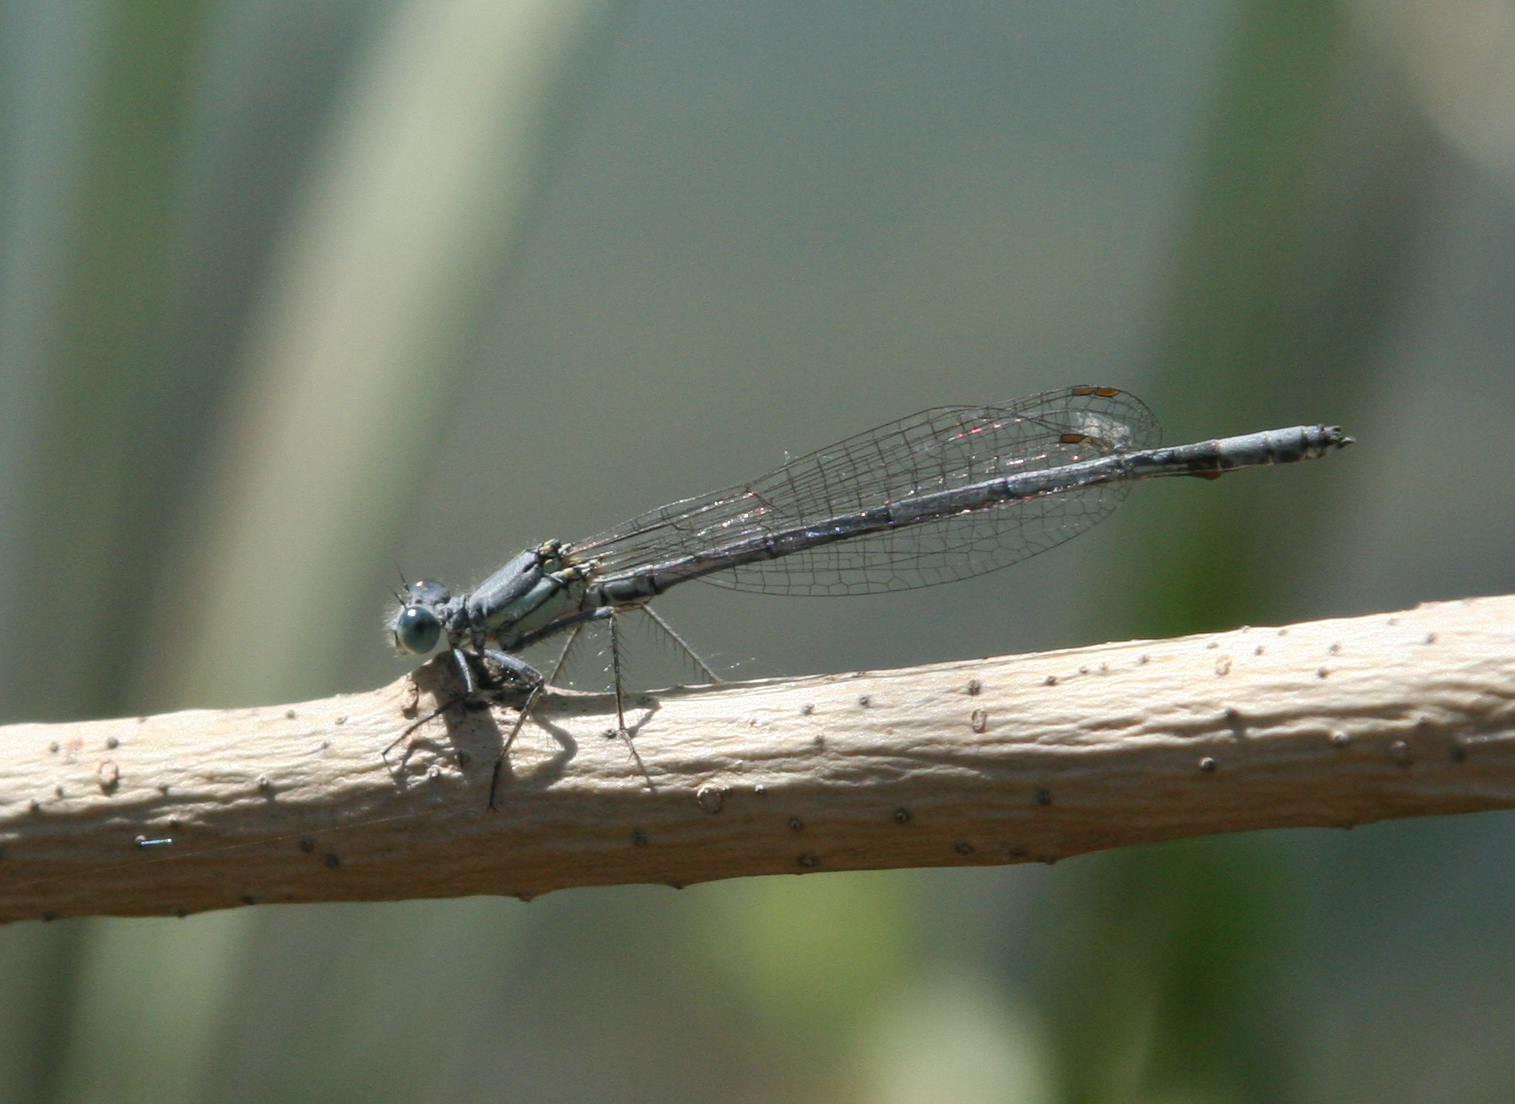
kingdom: Animalia
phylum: Arthropoda
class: Insecta
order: Odonata
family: Platycnemididae
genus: Platycnemis
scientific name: Platycnemis kervillei
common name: Kerville's featherleg
